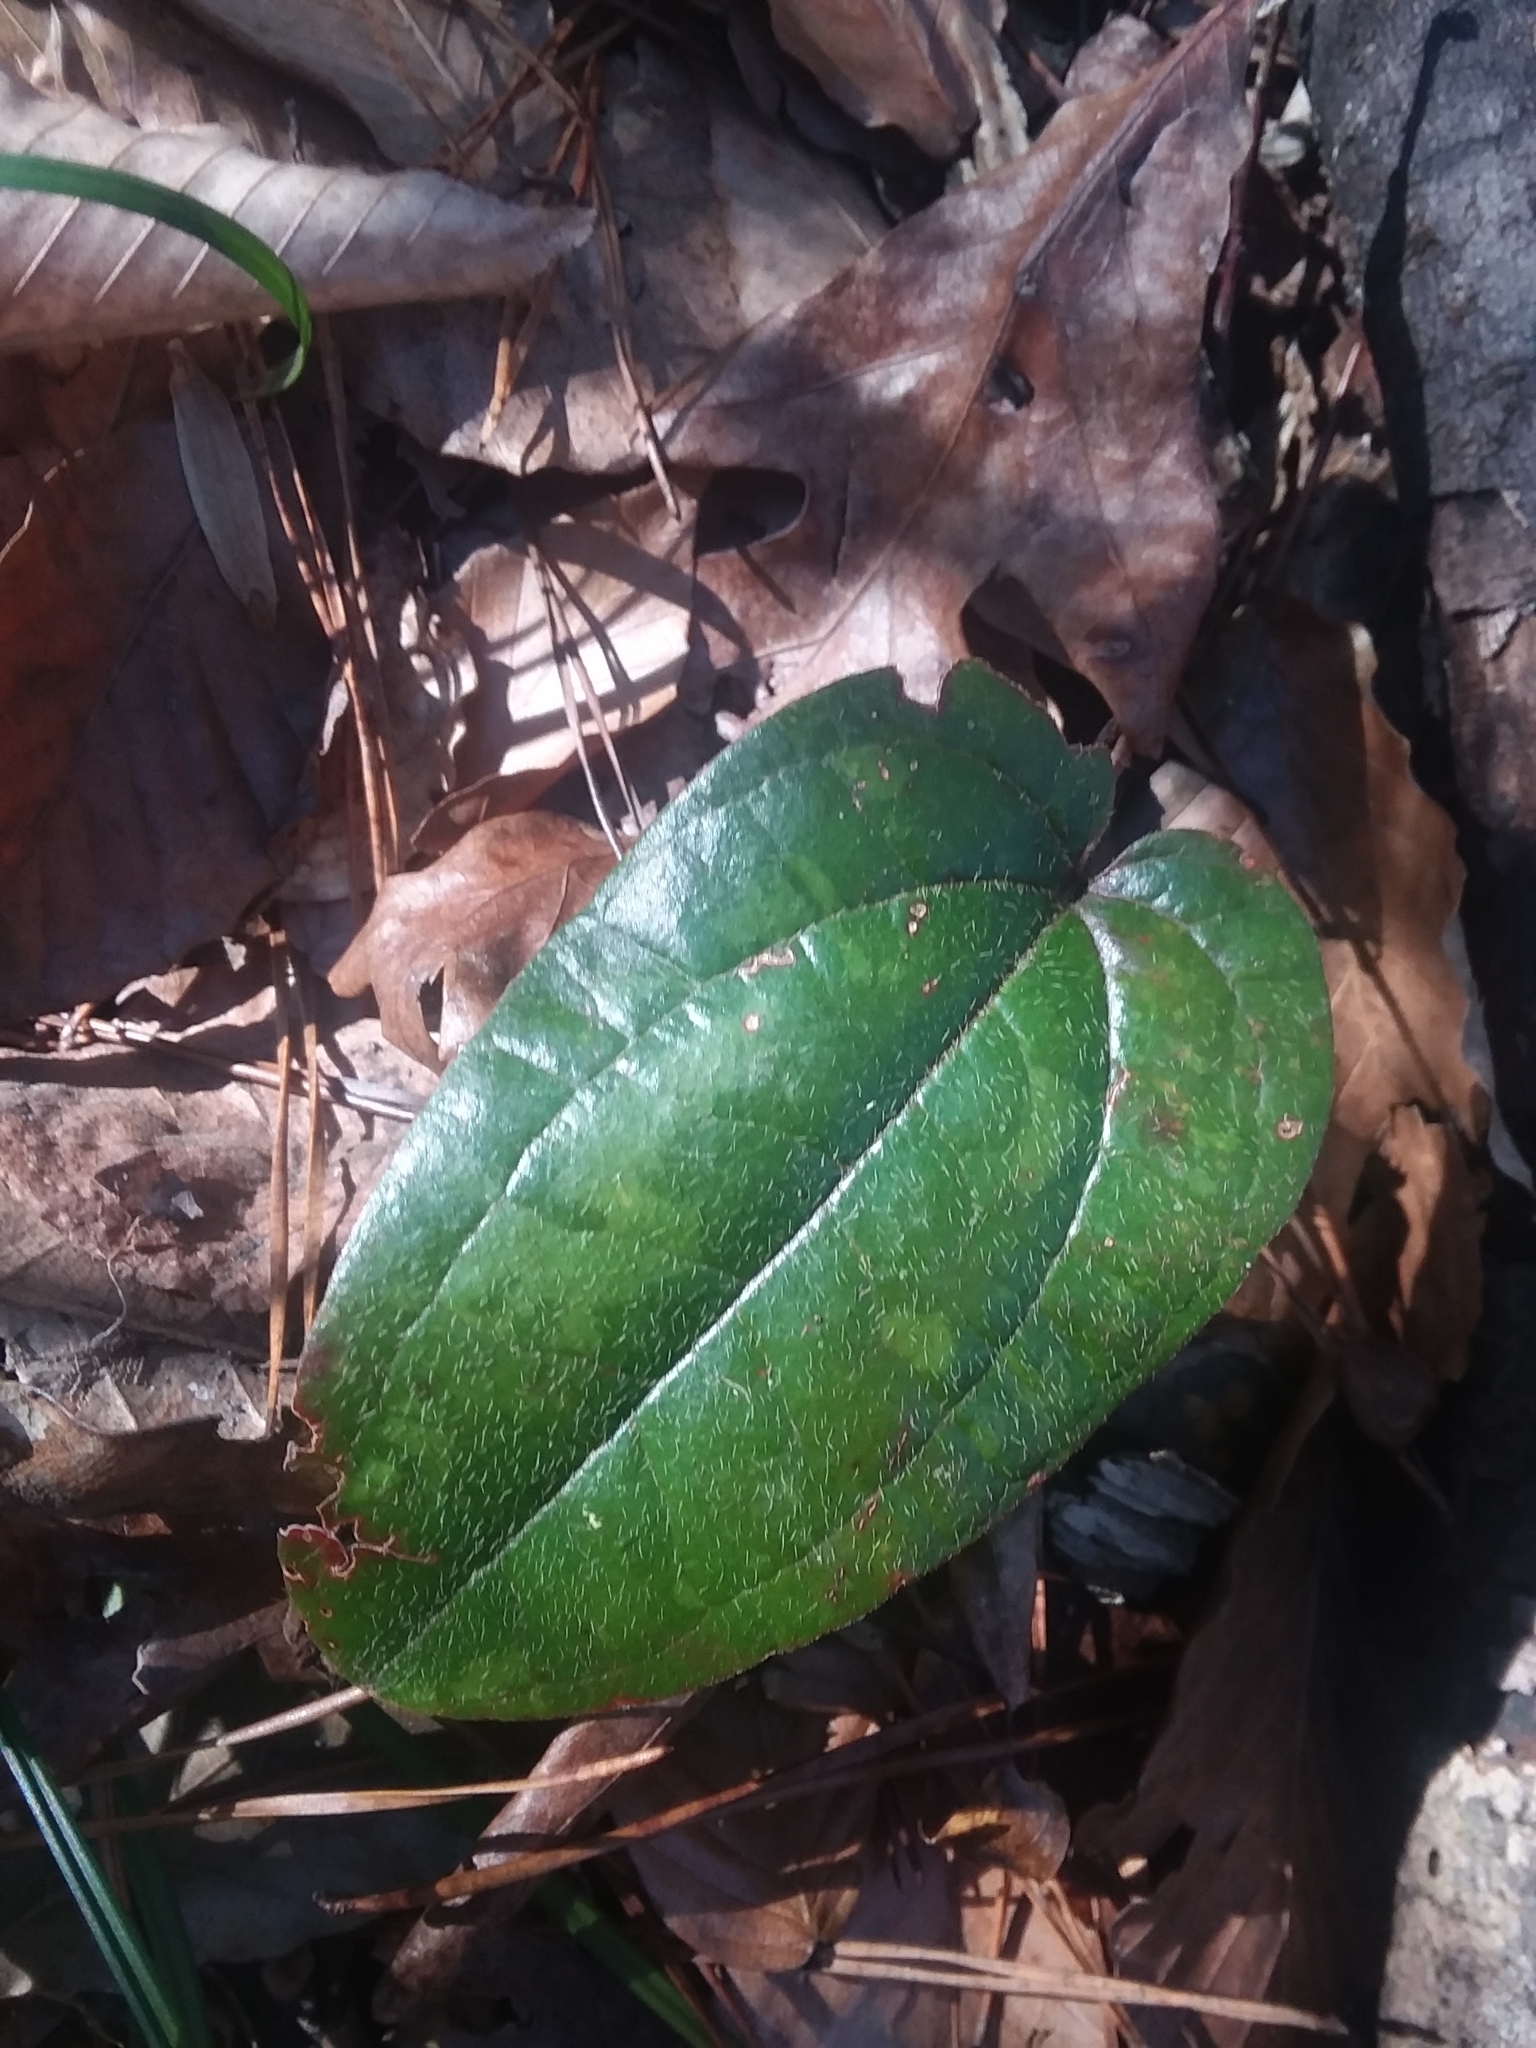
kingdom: Plantae
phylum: Tracheophyta
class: Liliopsida
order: Liliales
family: Smilacaceae
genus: Smilax
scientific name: Smilax pumila
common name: Sarsaparilla-vine
